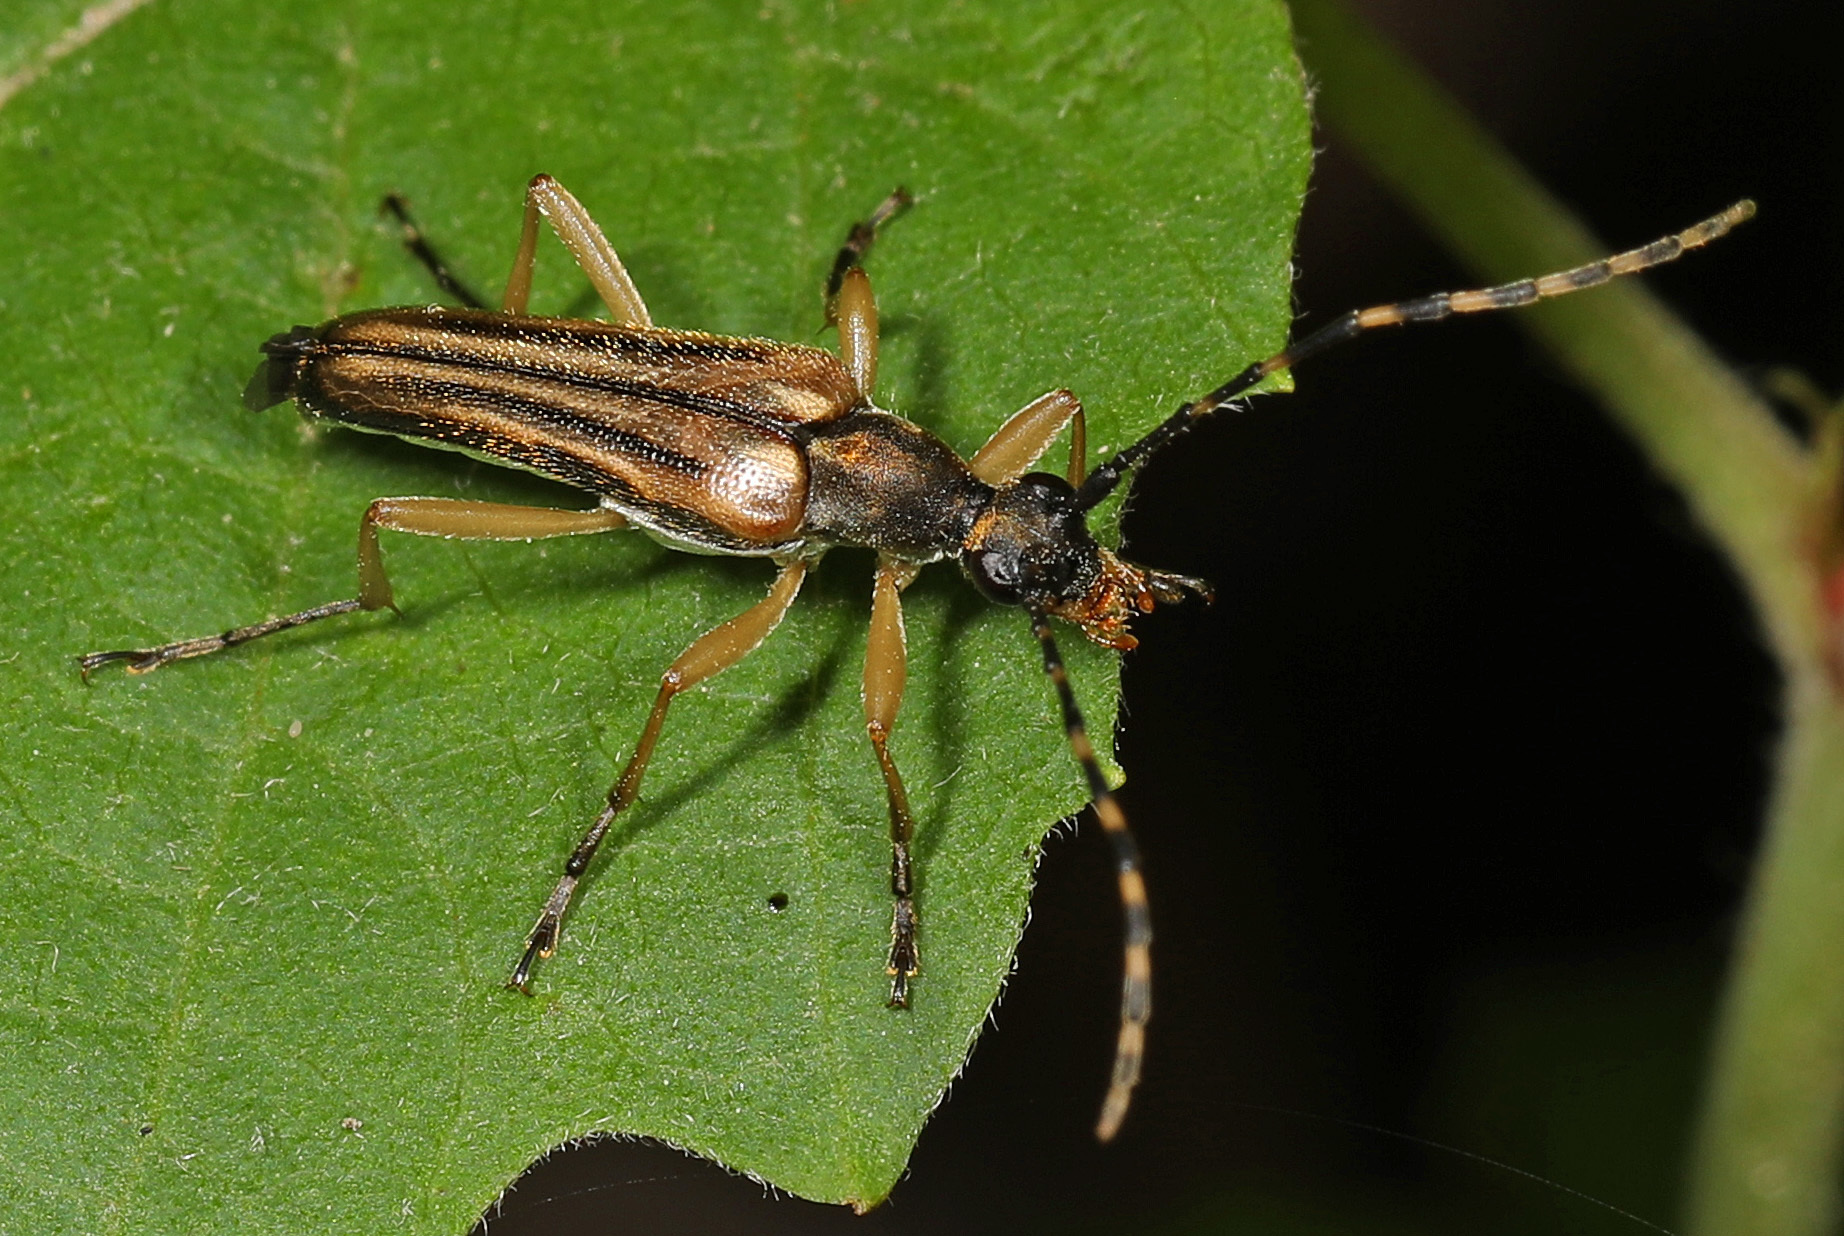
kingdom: Animalia
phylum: Arthropoda
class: Insecta
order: Coleoptera
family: Cerambycidae
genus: Analeptura
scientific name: Analeptura lineola
